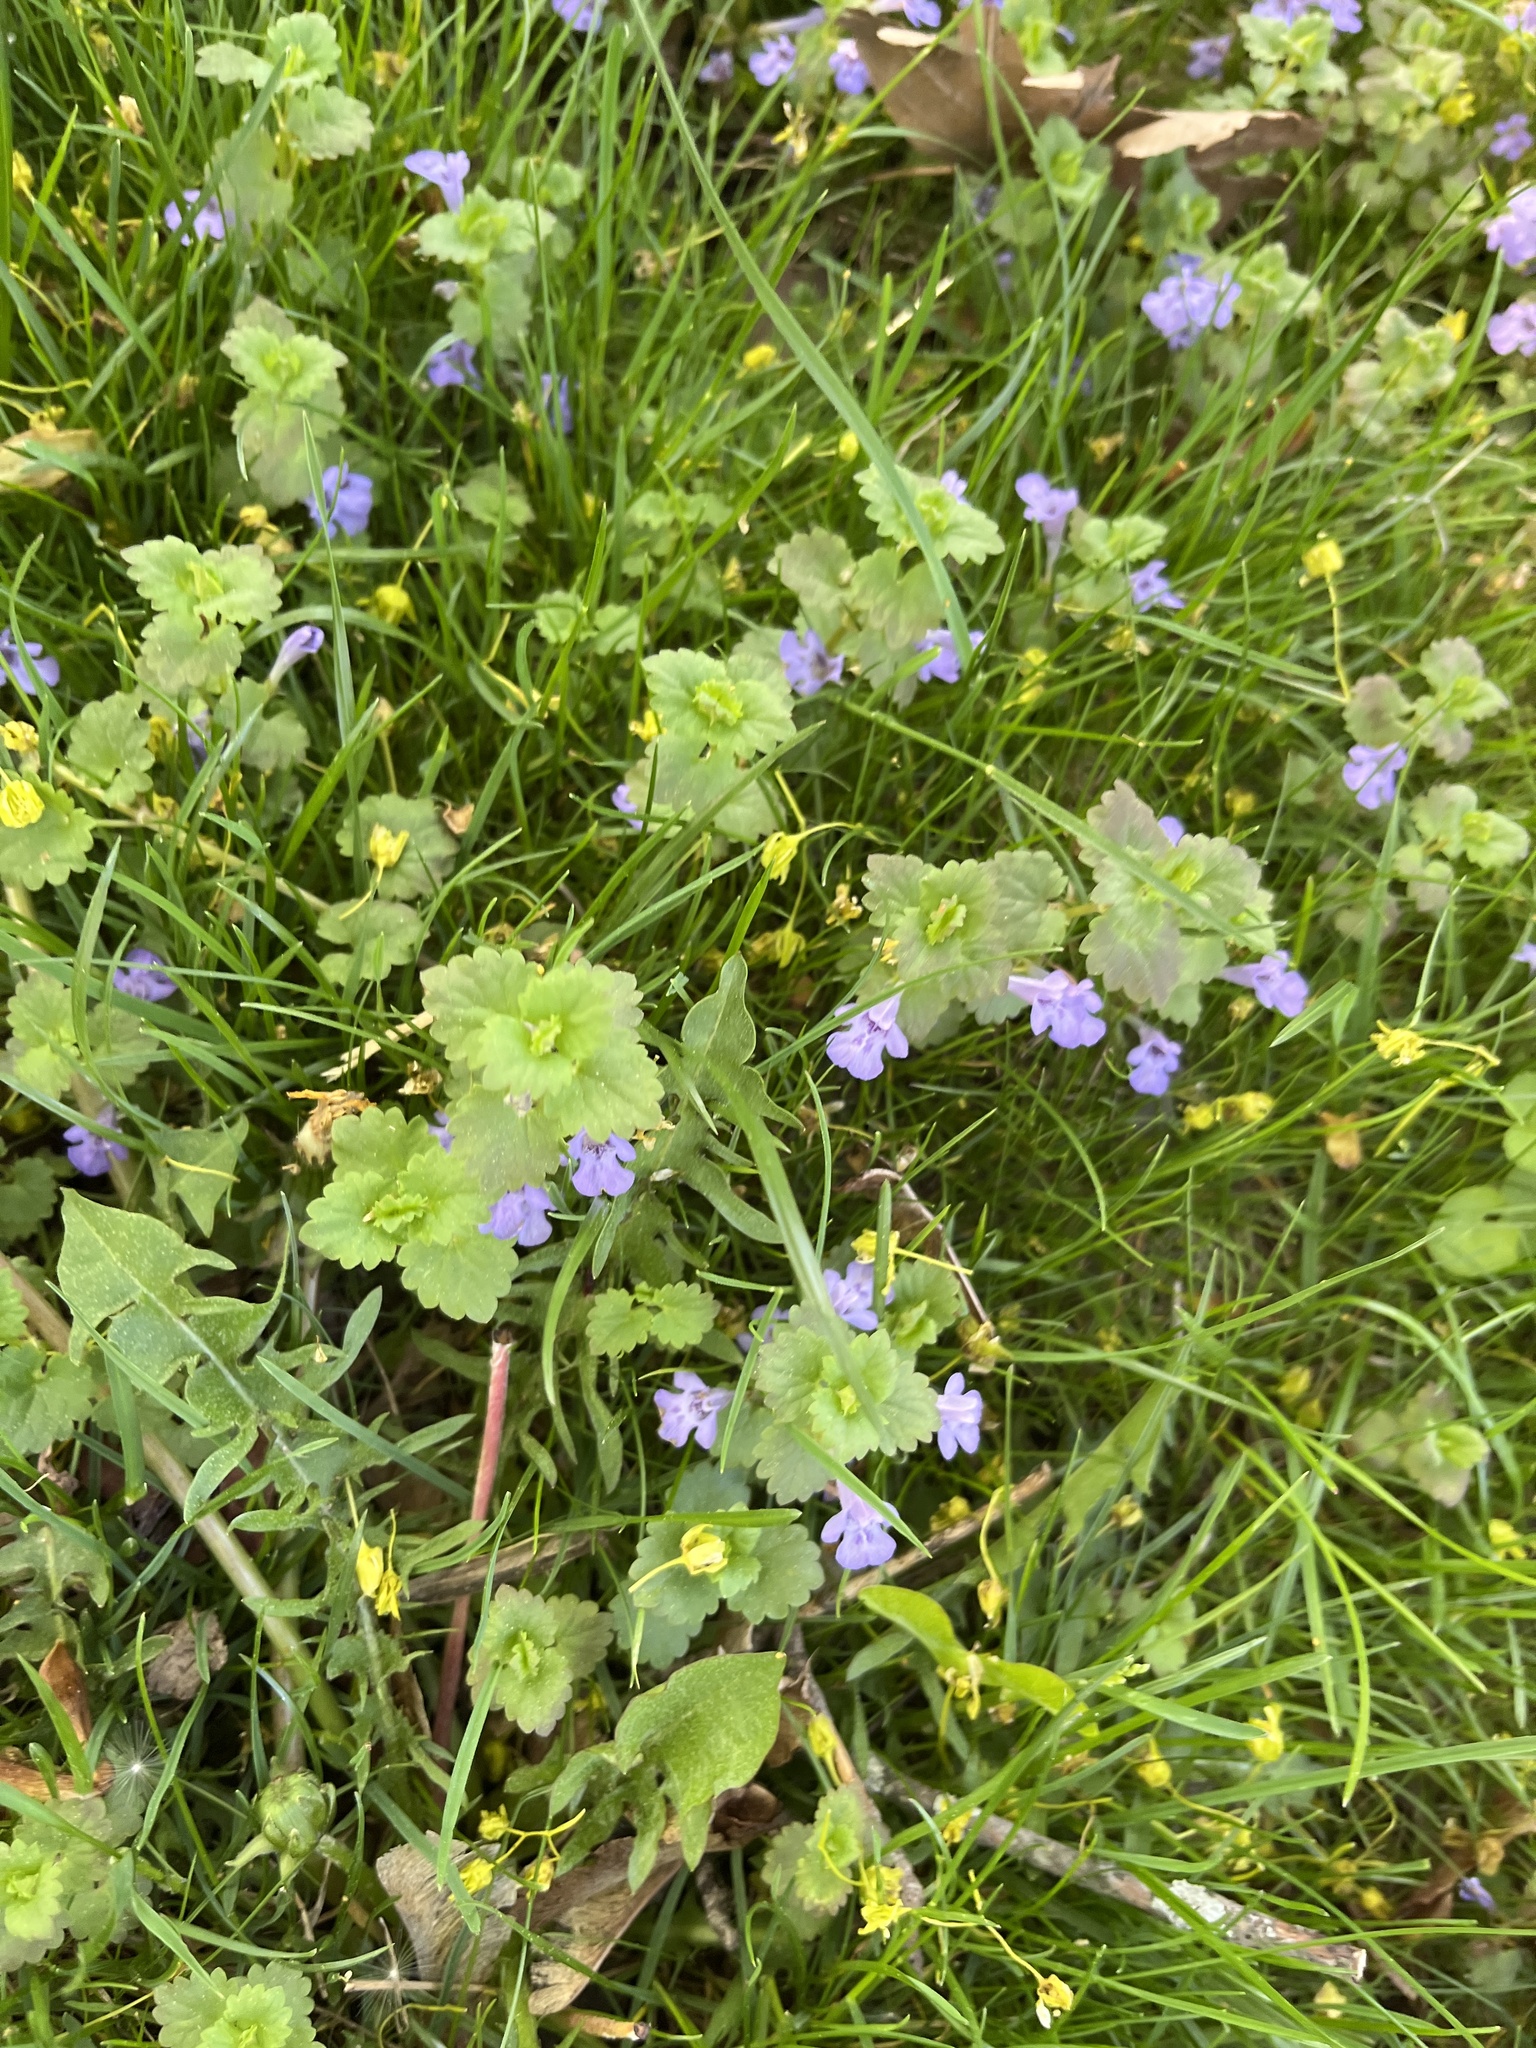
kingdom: Plantae
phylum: Tracheophyta
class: Magnoliopsida
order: Lamiales
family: Lamiaceae
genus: Glechoma
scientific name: Glechoma hederacea
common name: Ground ivy
